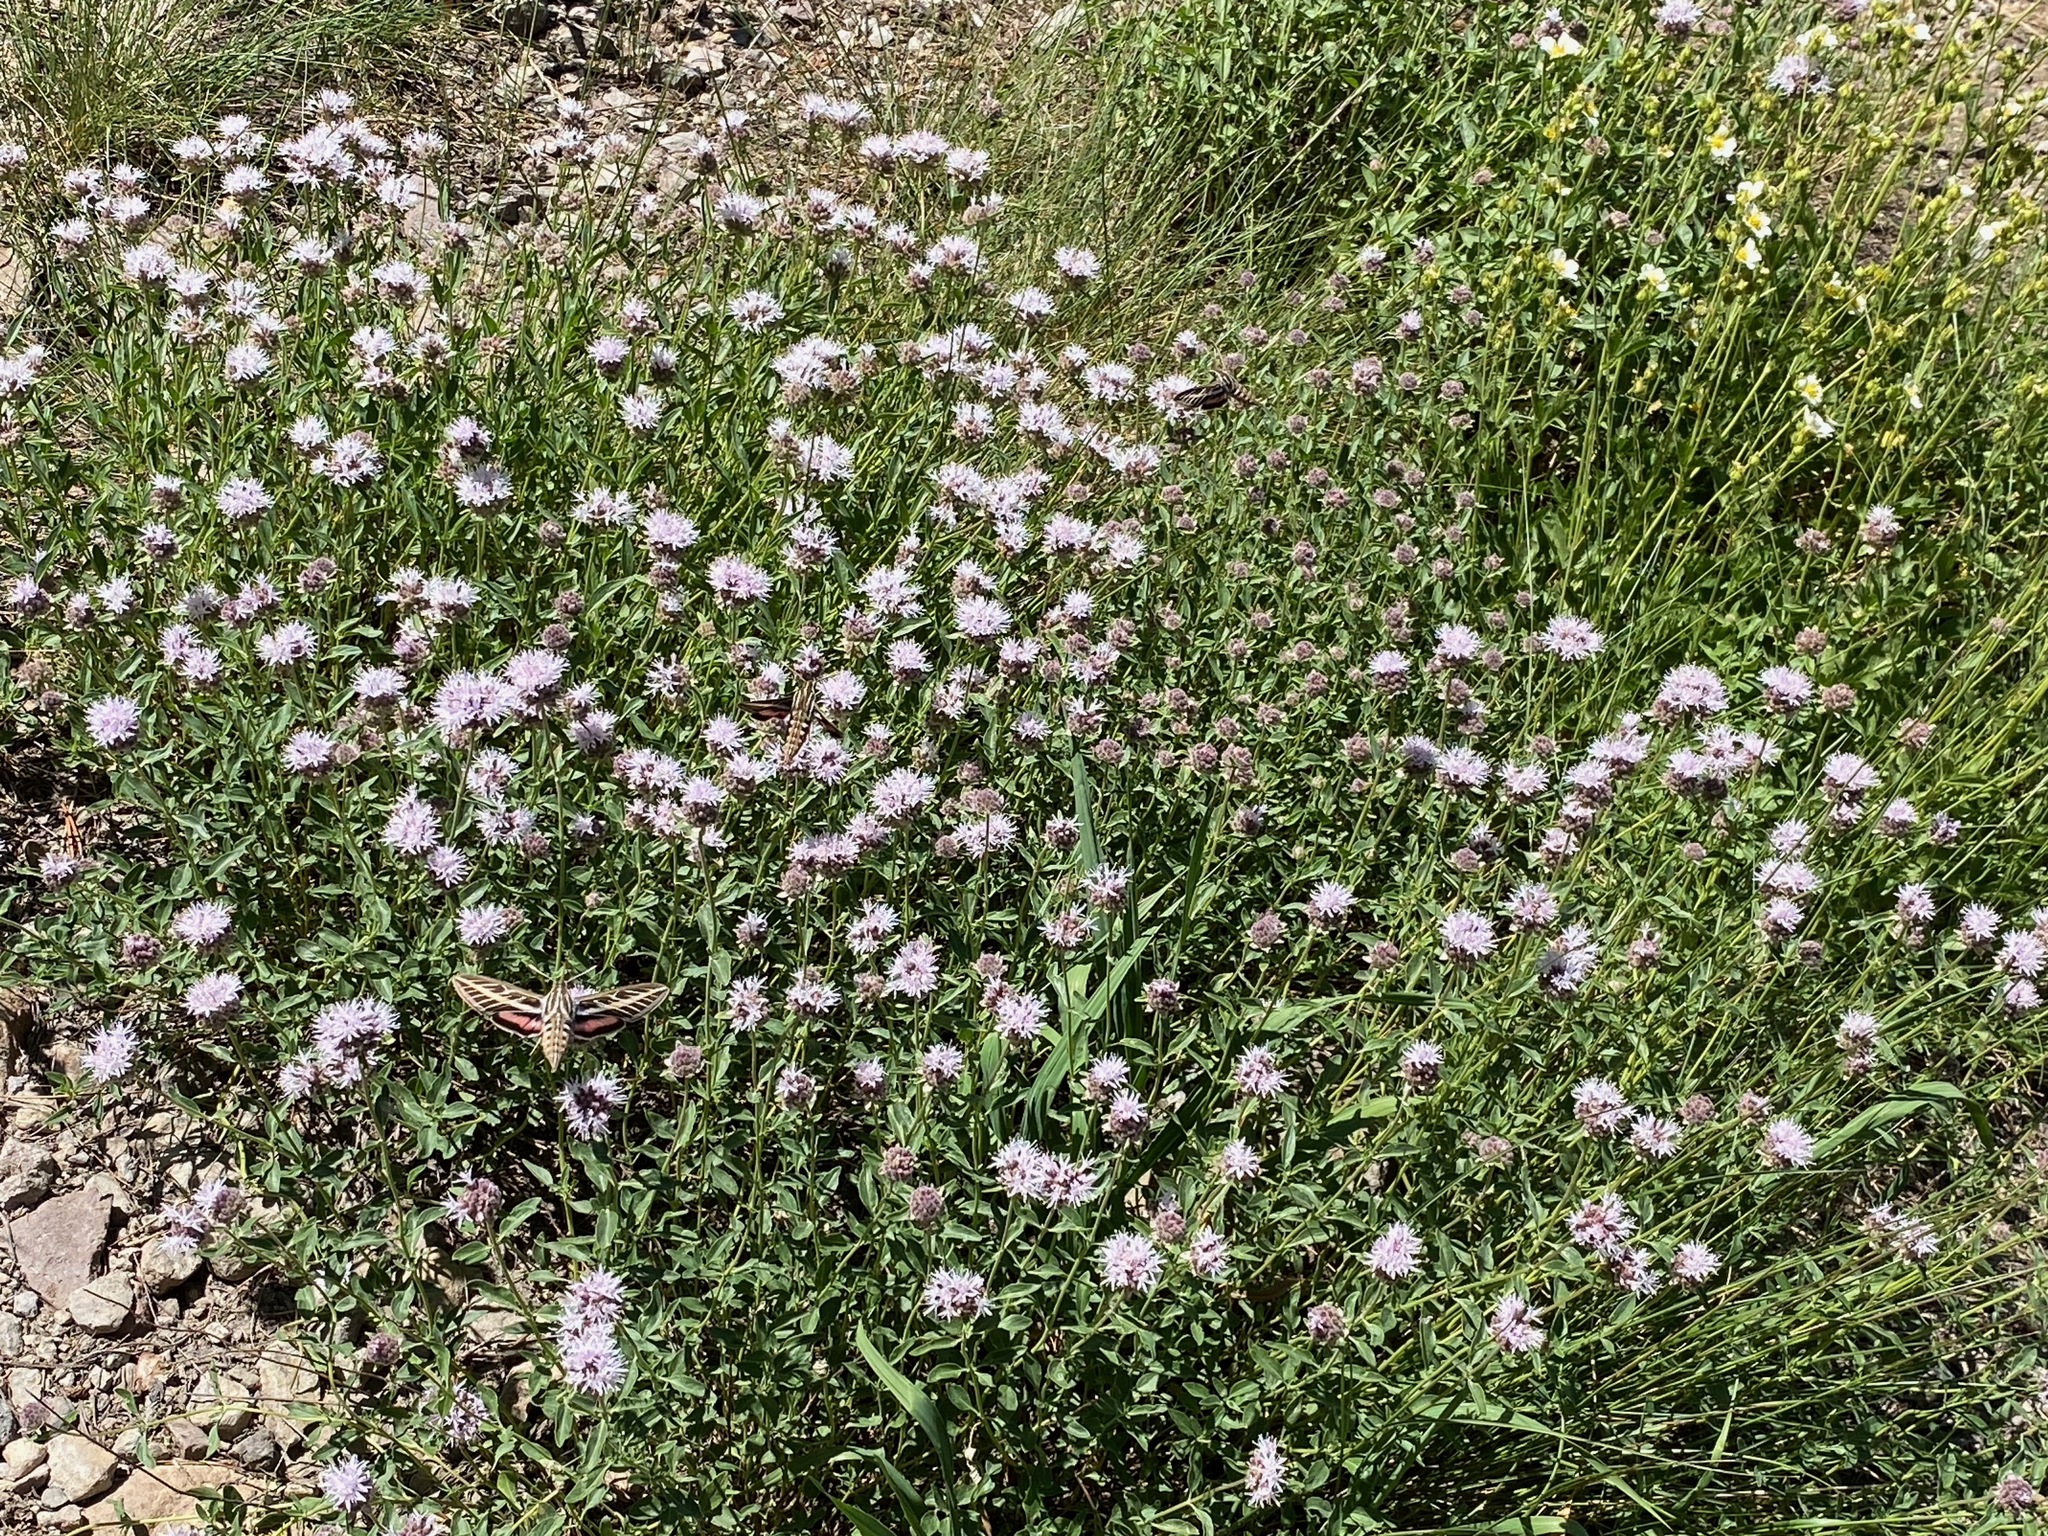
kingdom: Animalia
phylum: Arthropoda
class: Insecta
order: Lepidoptera
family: Sphingidae
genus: Hyles
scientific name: Hyles lineata
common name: White-lined sphinx
